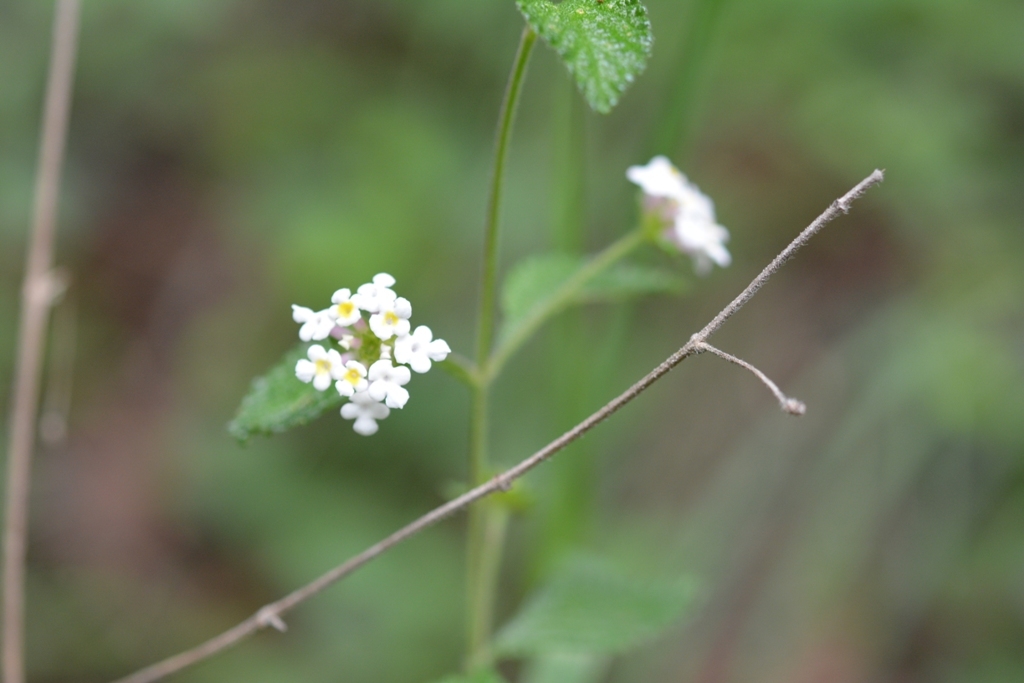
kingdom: Plantae
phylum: Tracheophyta
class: Magnoliopsida
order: Lamiales
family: Verbenaceae
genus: Lantana
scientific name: Lantana hirta
